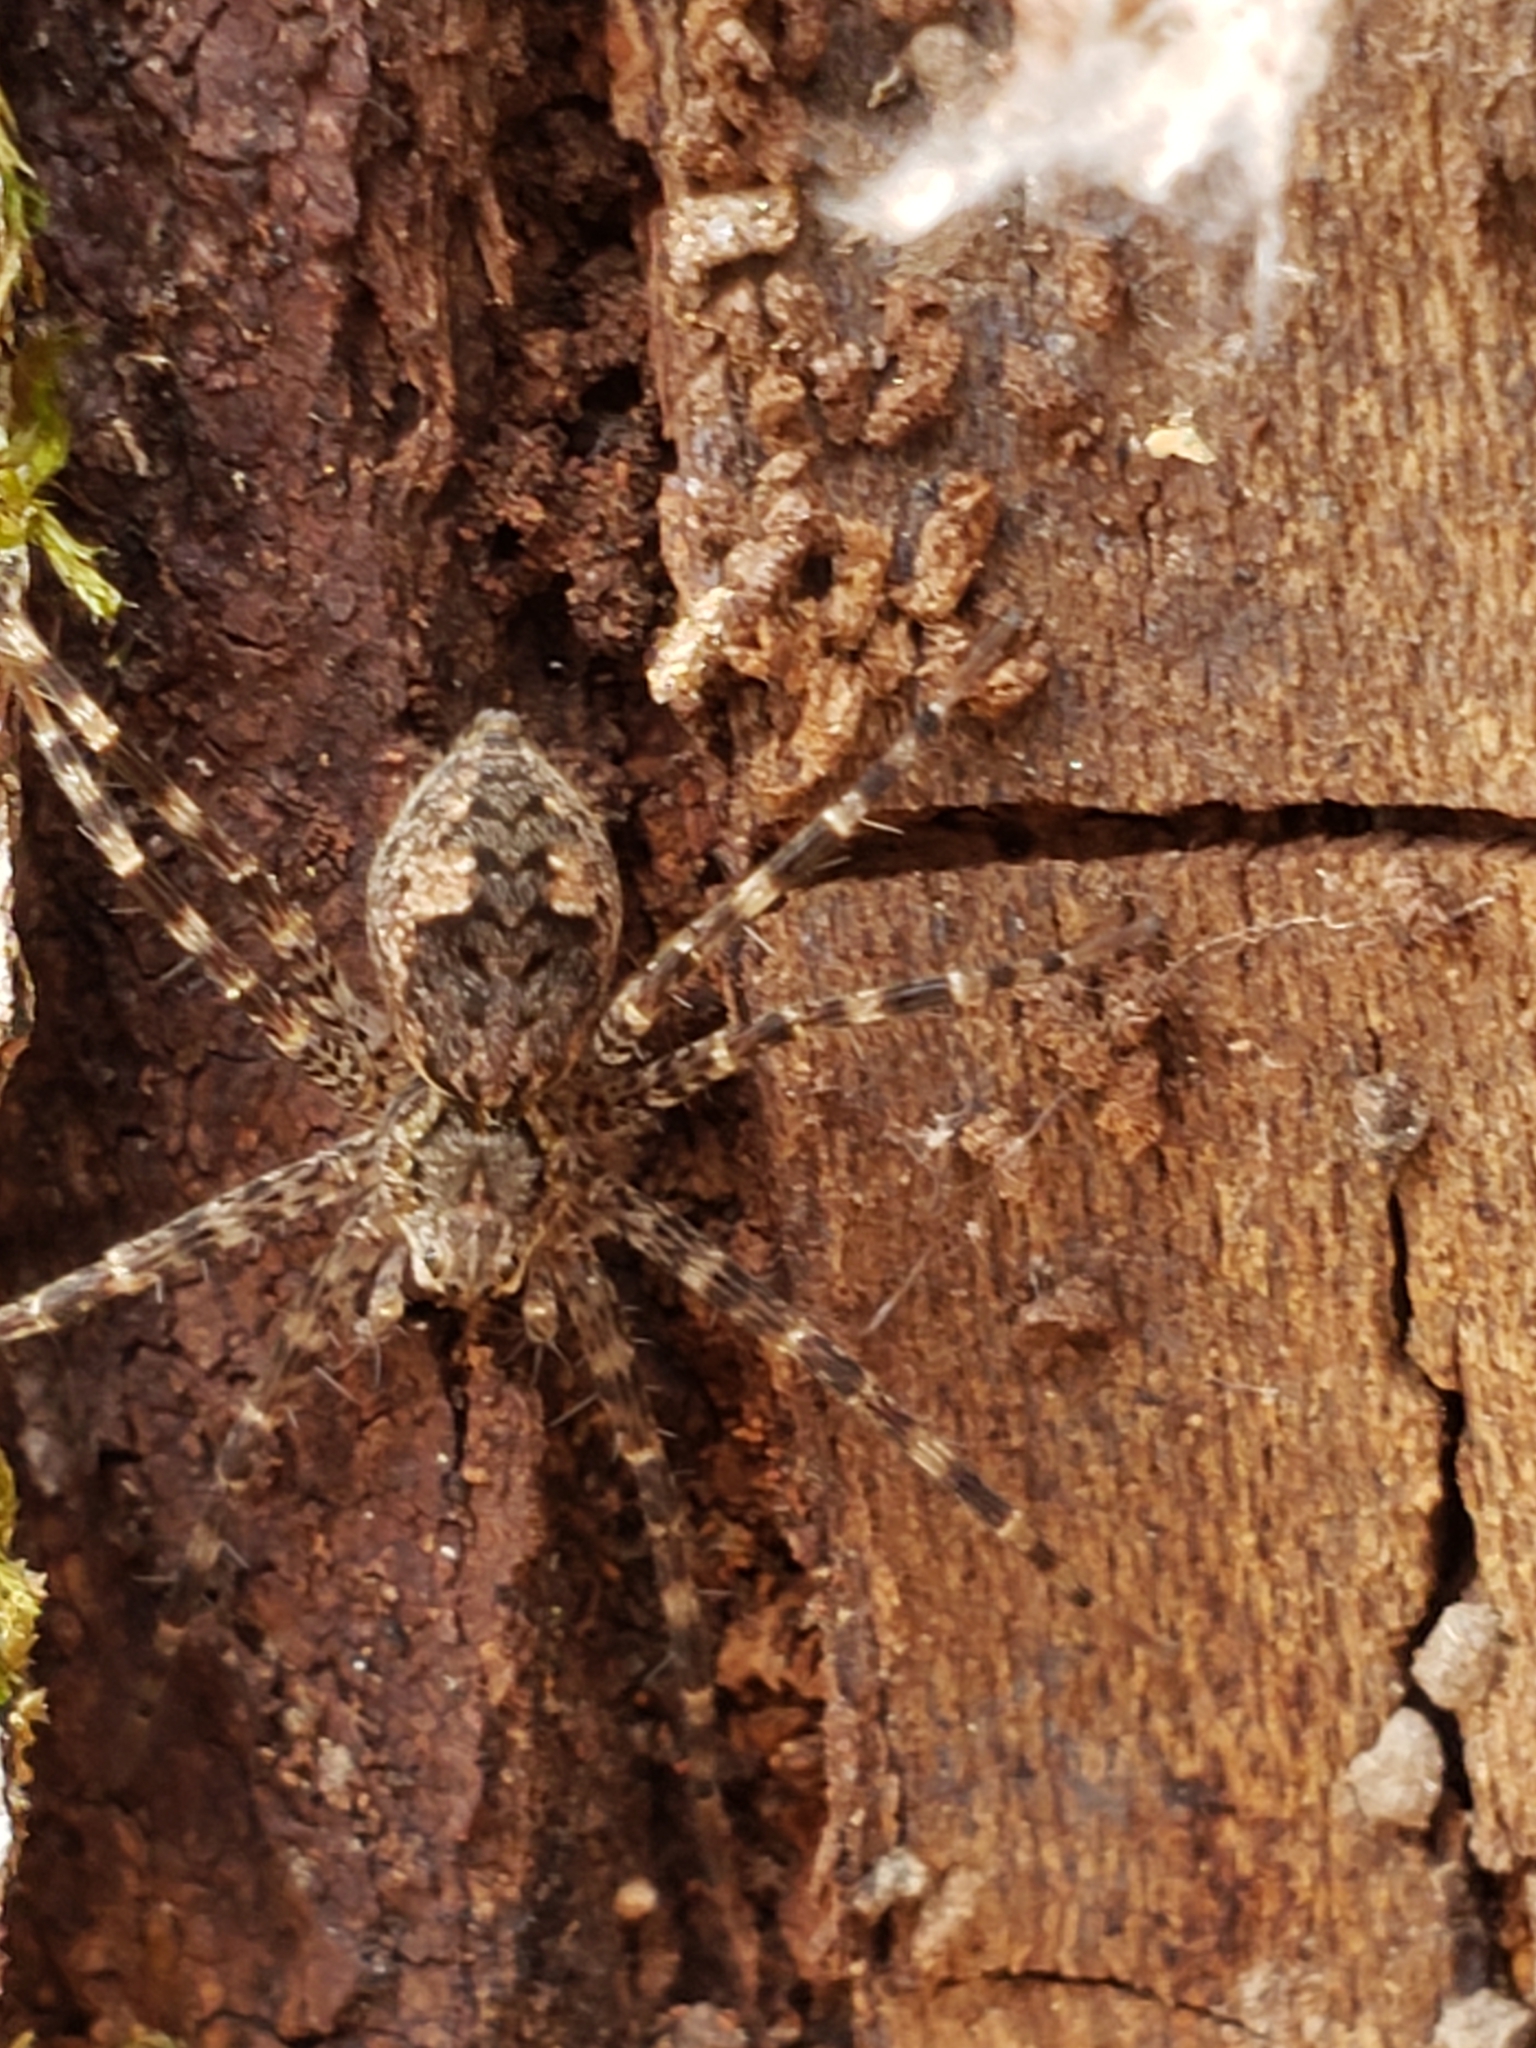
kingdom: Animalia
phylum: Arthropoda
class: Arachnida
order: Araneae
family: Pisauridae
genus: Dolomedes
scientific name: Dolomedes tenebrosus
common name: Dark fishing spider
